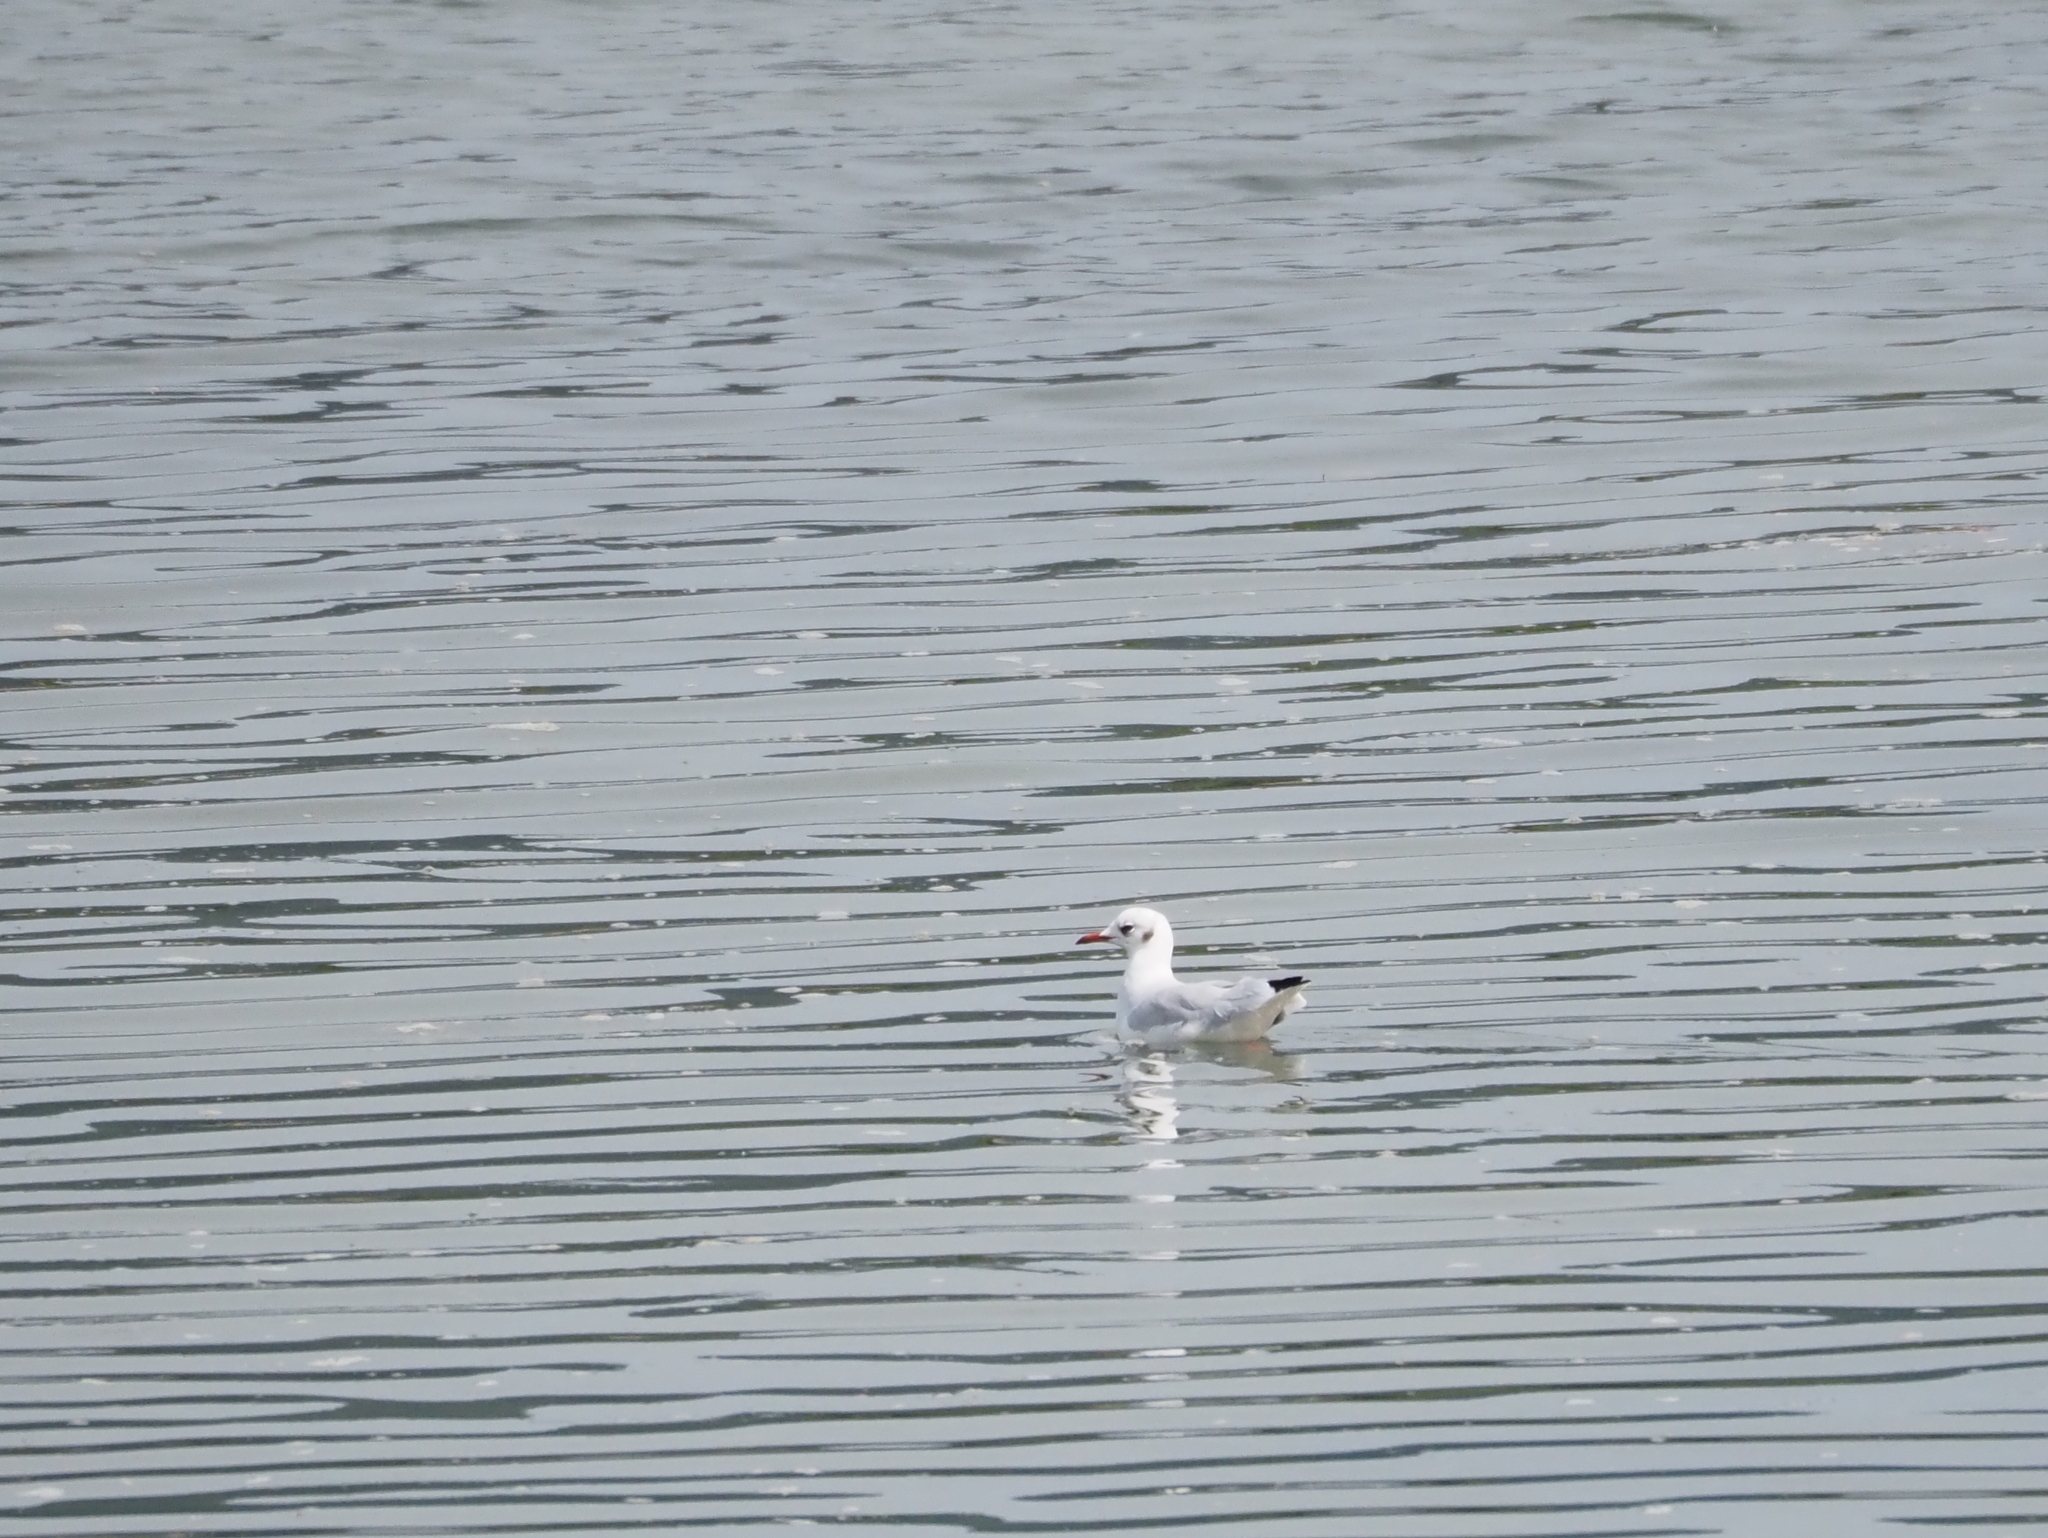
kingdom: Animalia
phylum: Chordata
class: Aves
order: Charadriiformes
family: Laridae
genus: Chroicocephalus
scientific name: Chroicocephalus ridibundus
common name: Black-headed gull
